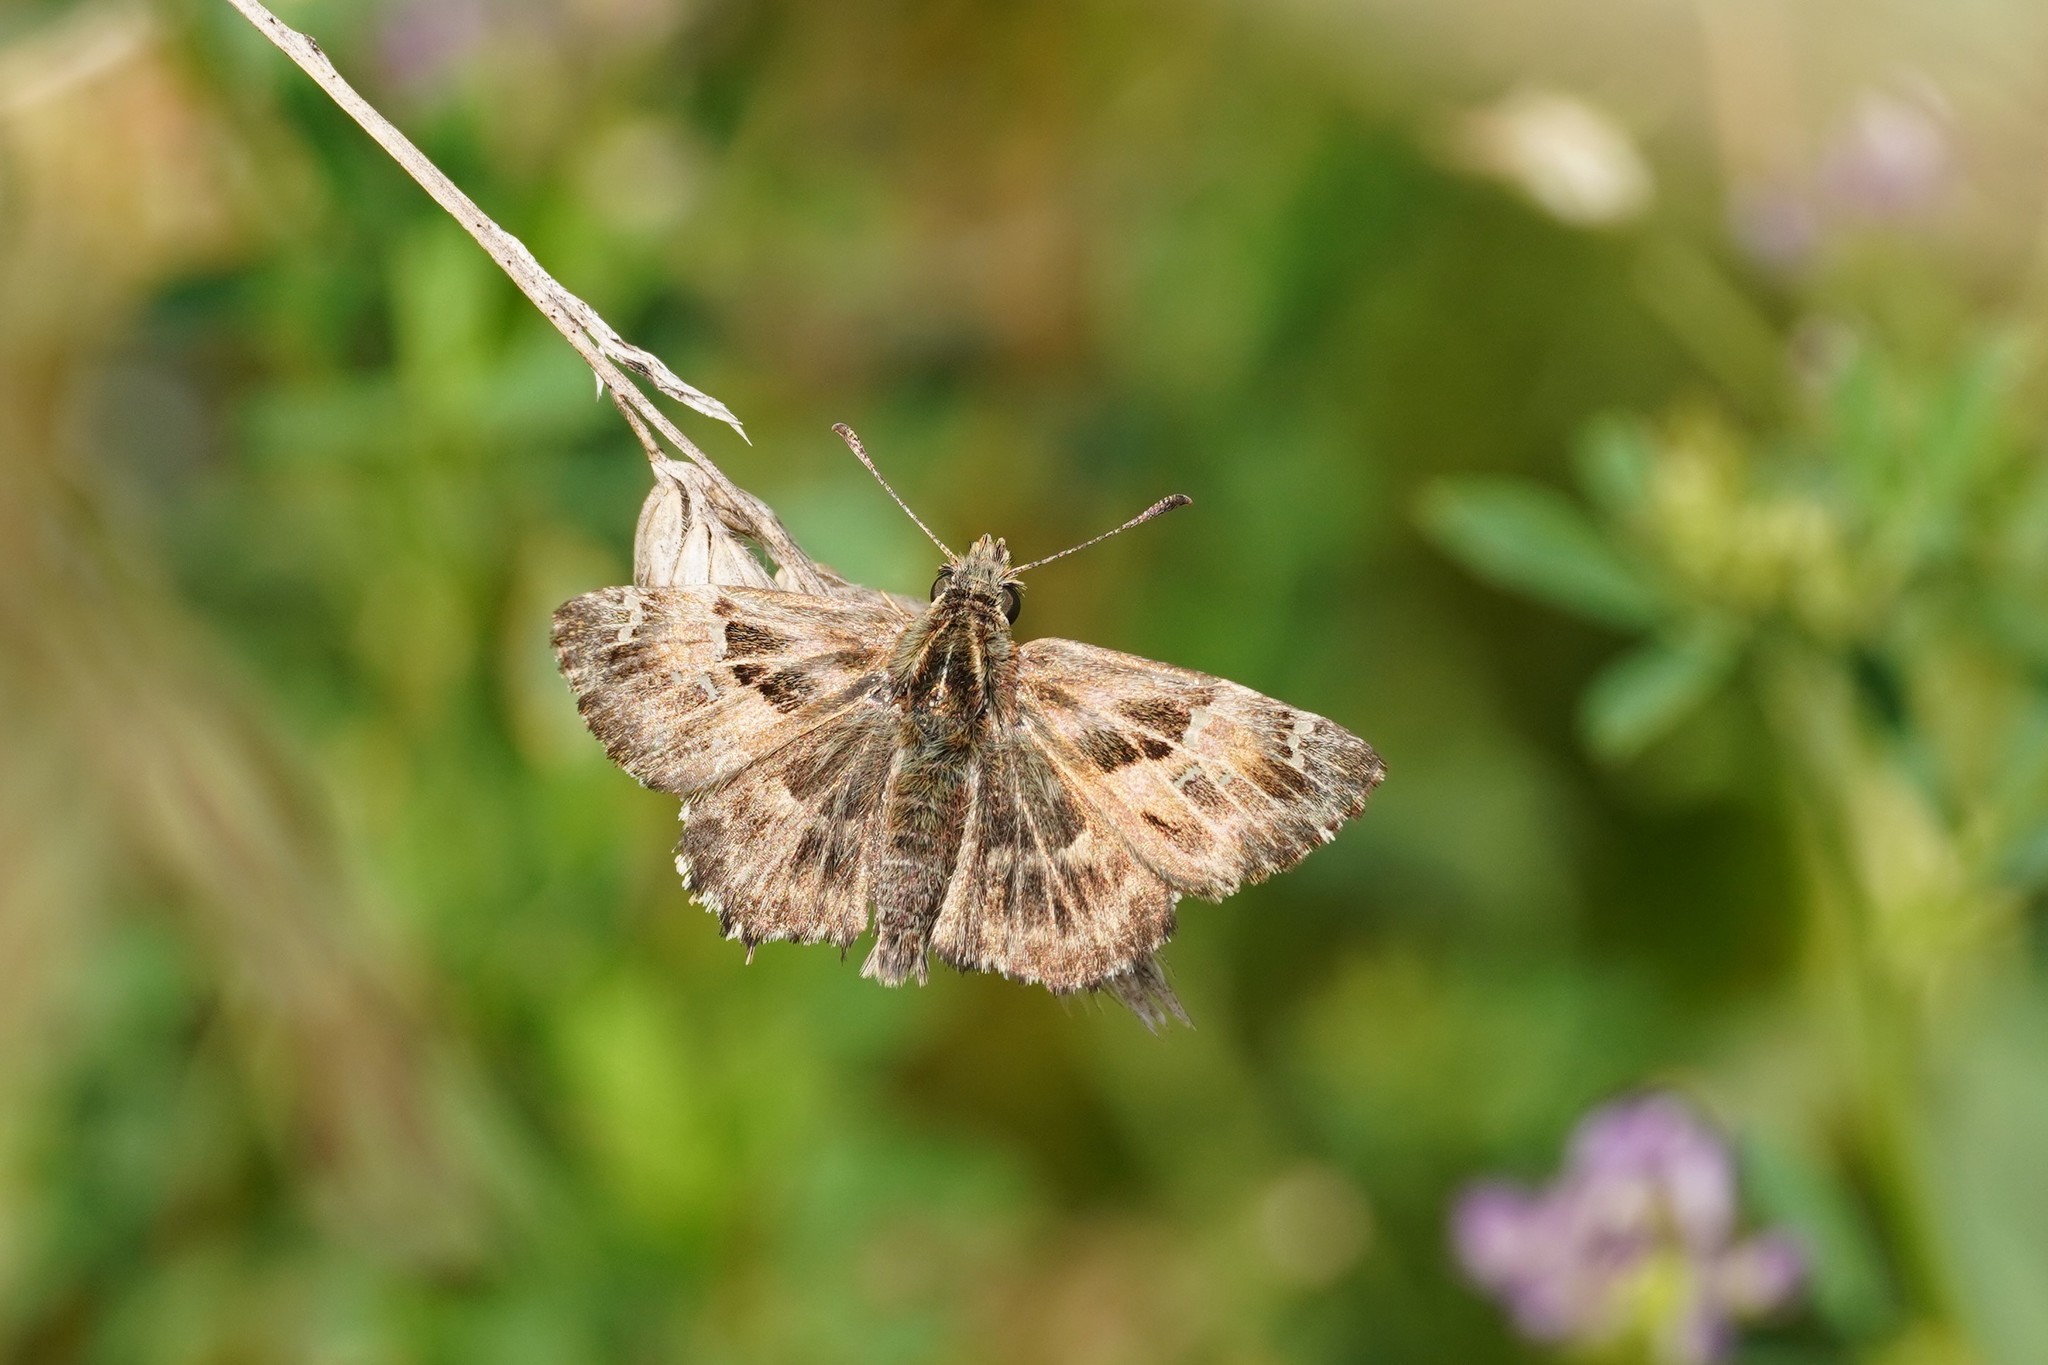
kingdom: Animalia
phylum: Arthropoda
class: Insecta
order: Lepidoptera
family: Hesperiidae
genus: Carcharodus
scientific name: Carcharodus alceae
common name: Mallow skipper
